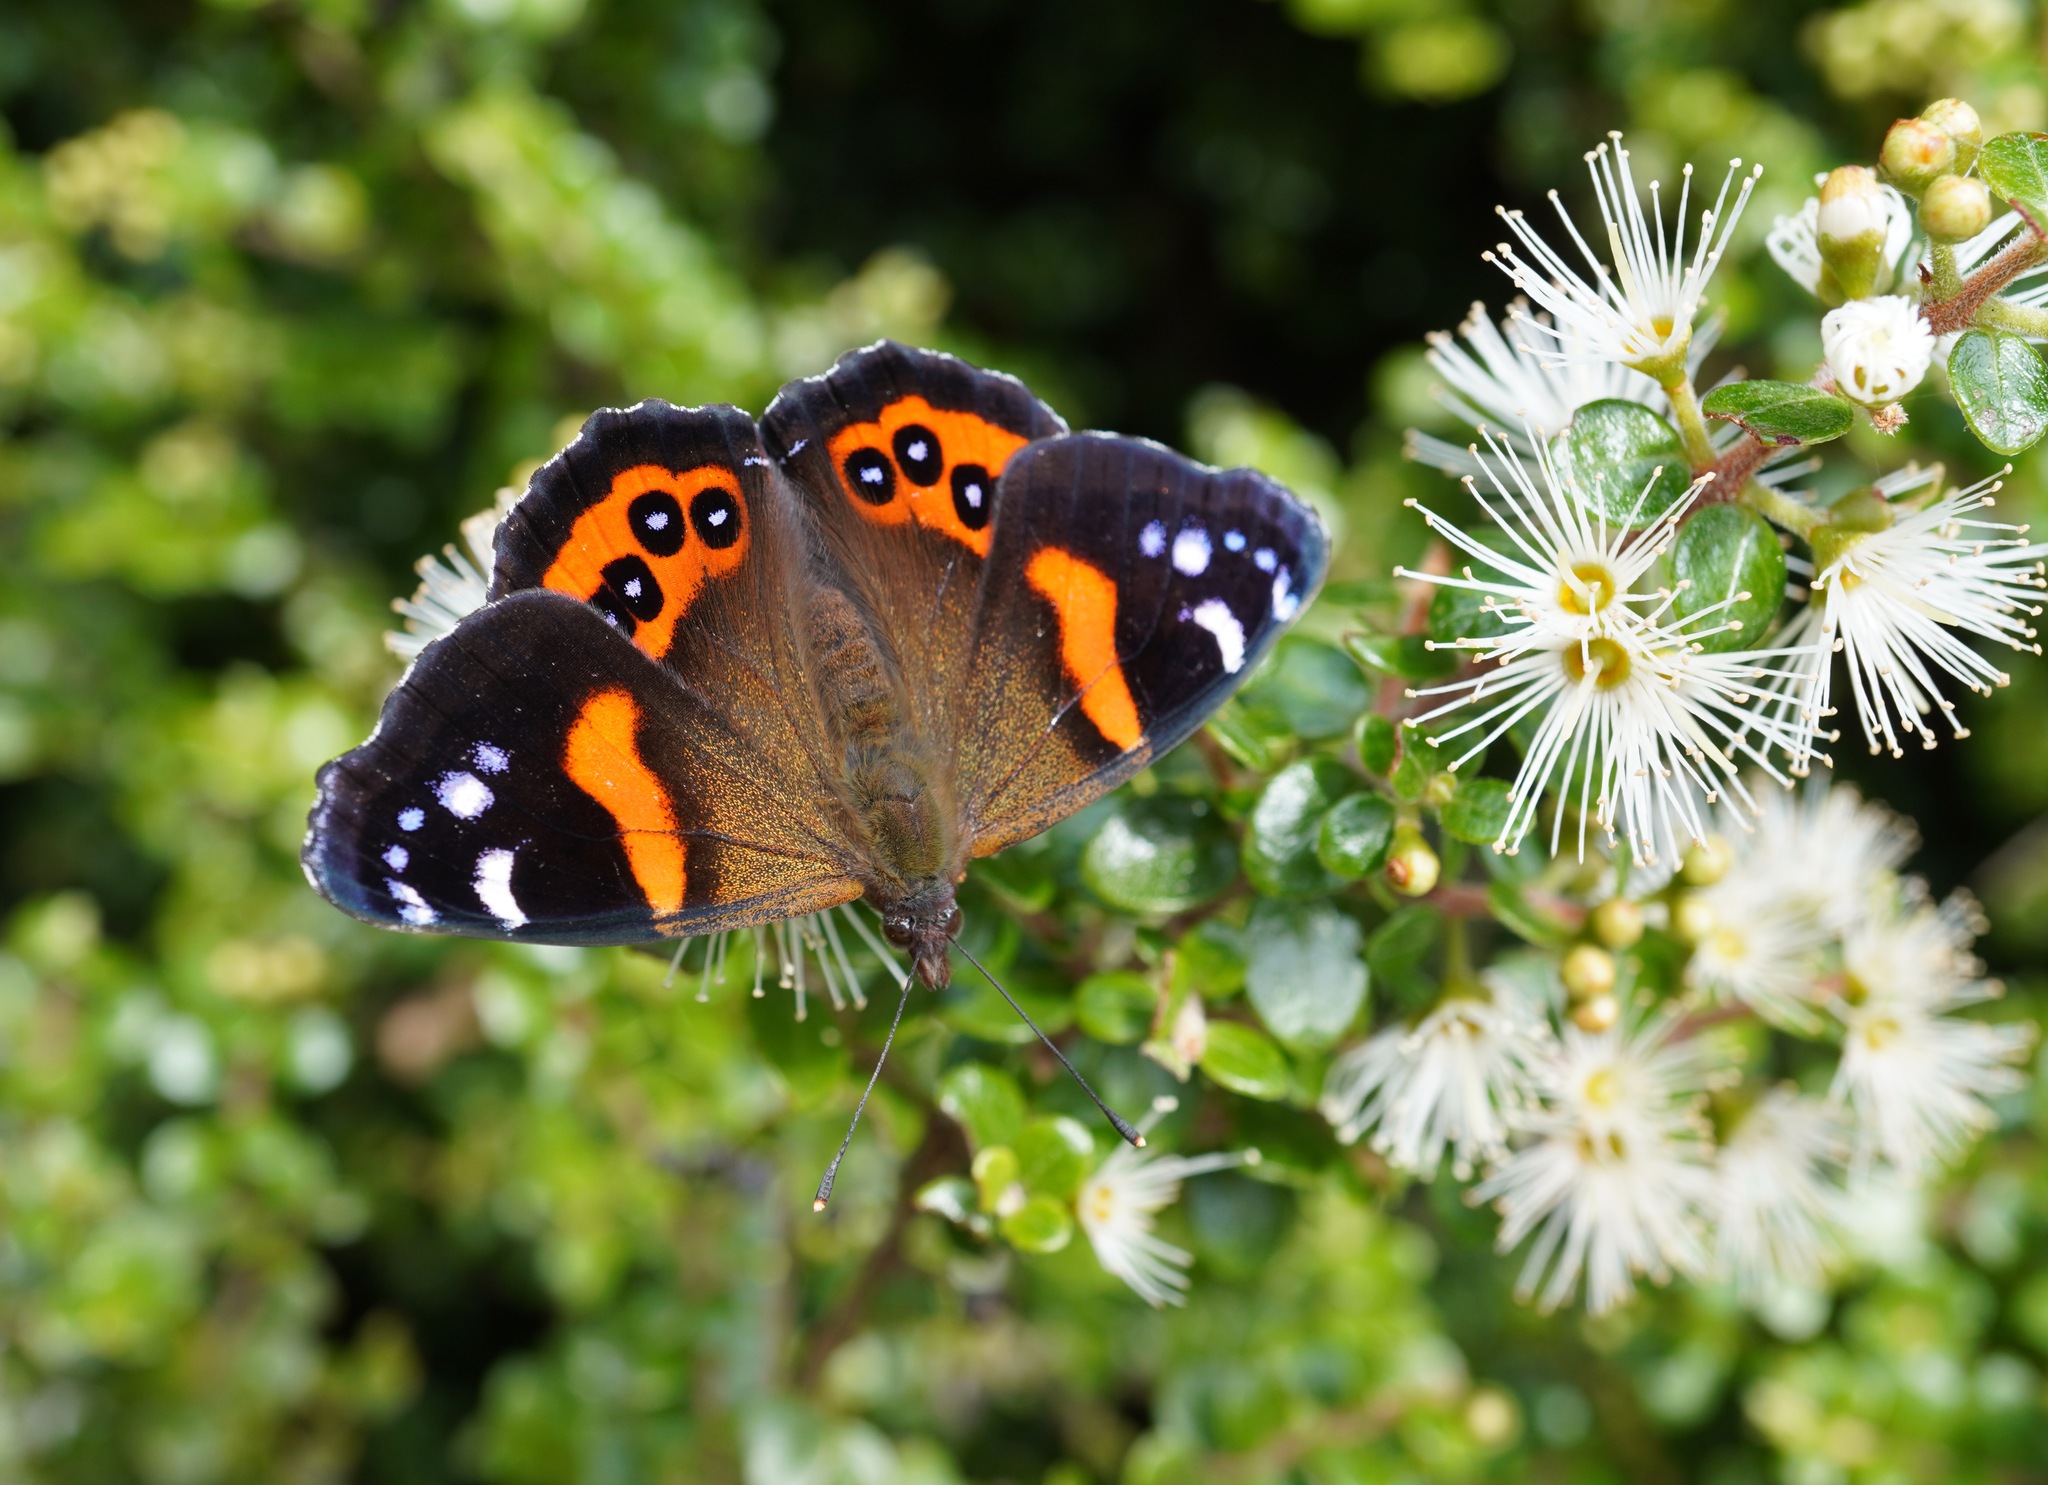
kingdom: Animalia
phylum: Arthropoda
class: Insecta
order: Lepidoptera
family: Nymphalidae
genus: Vanessa
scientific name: Vanessa gonerilla
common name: New zealand red admiral
